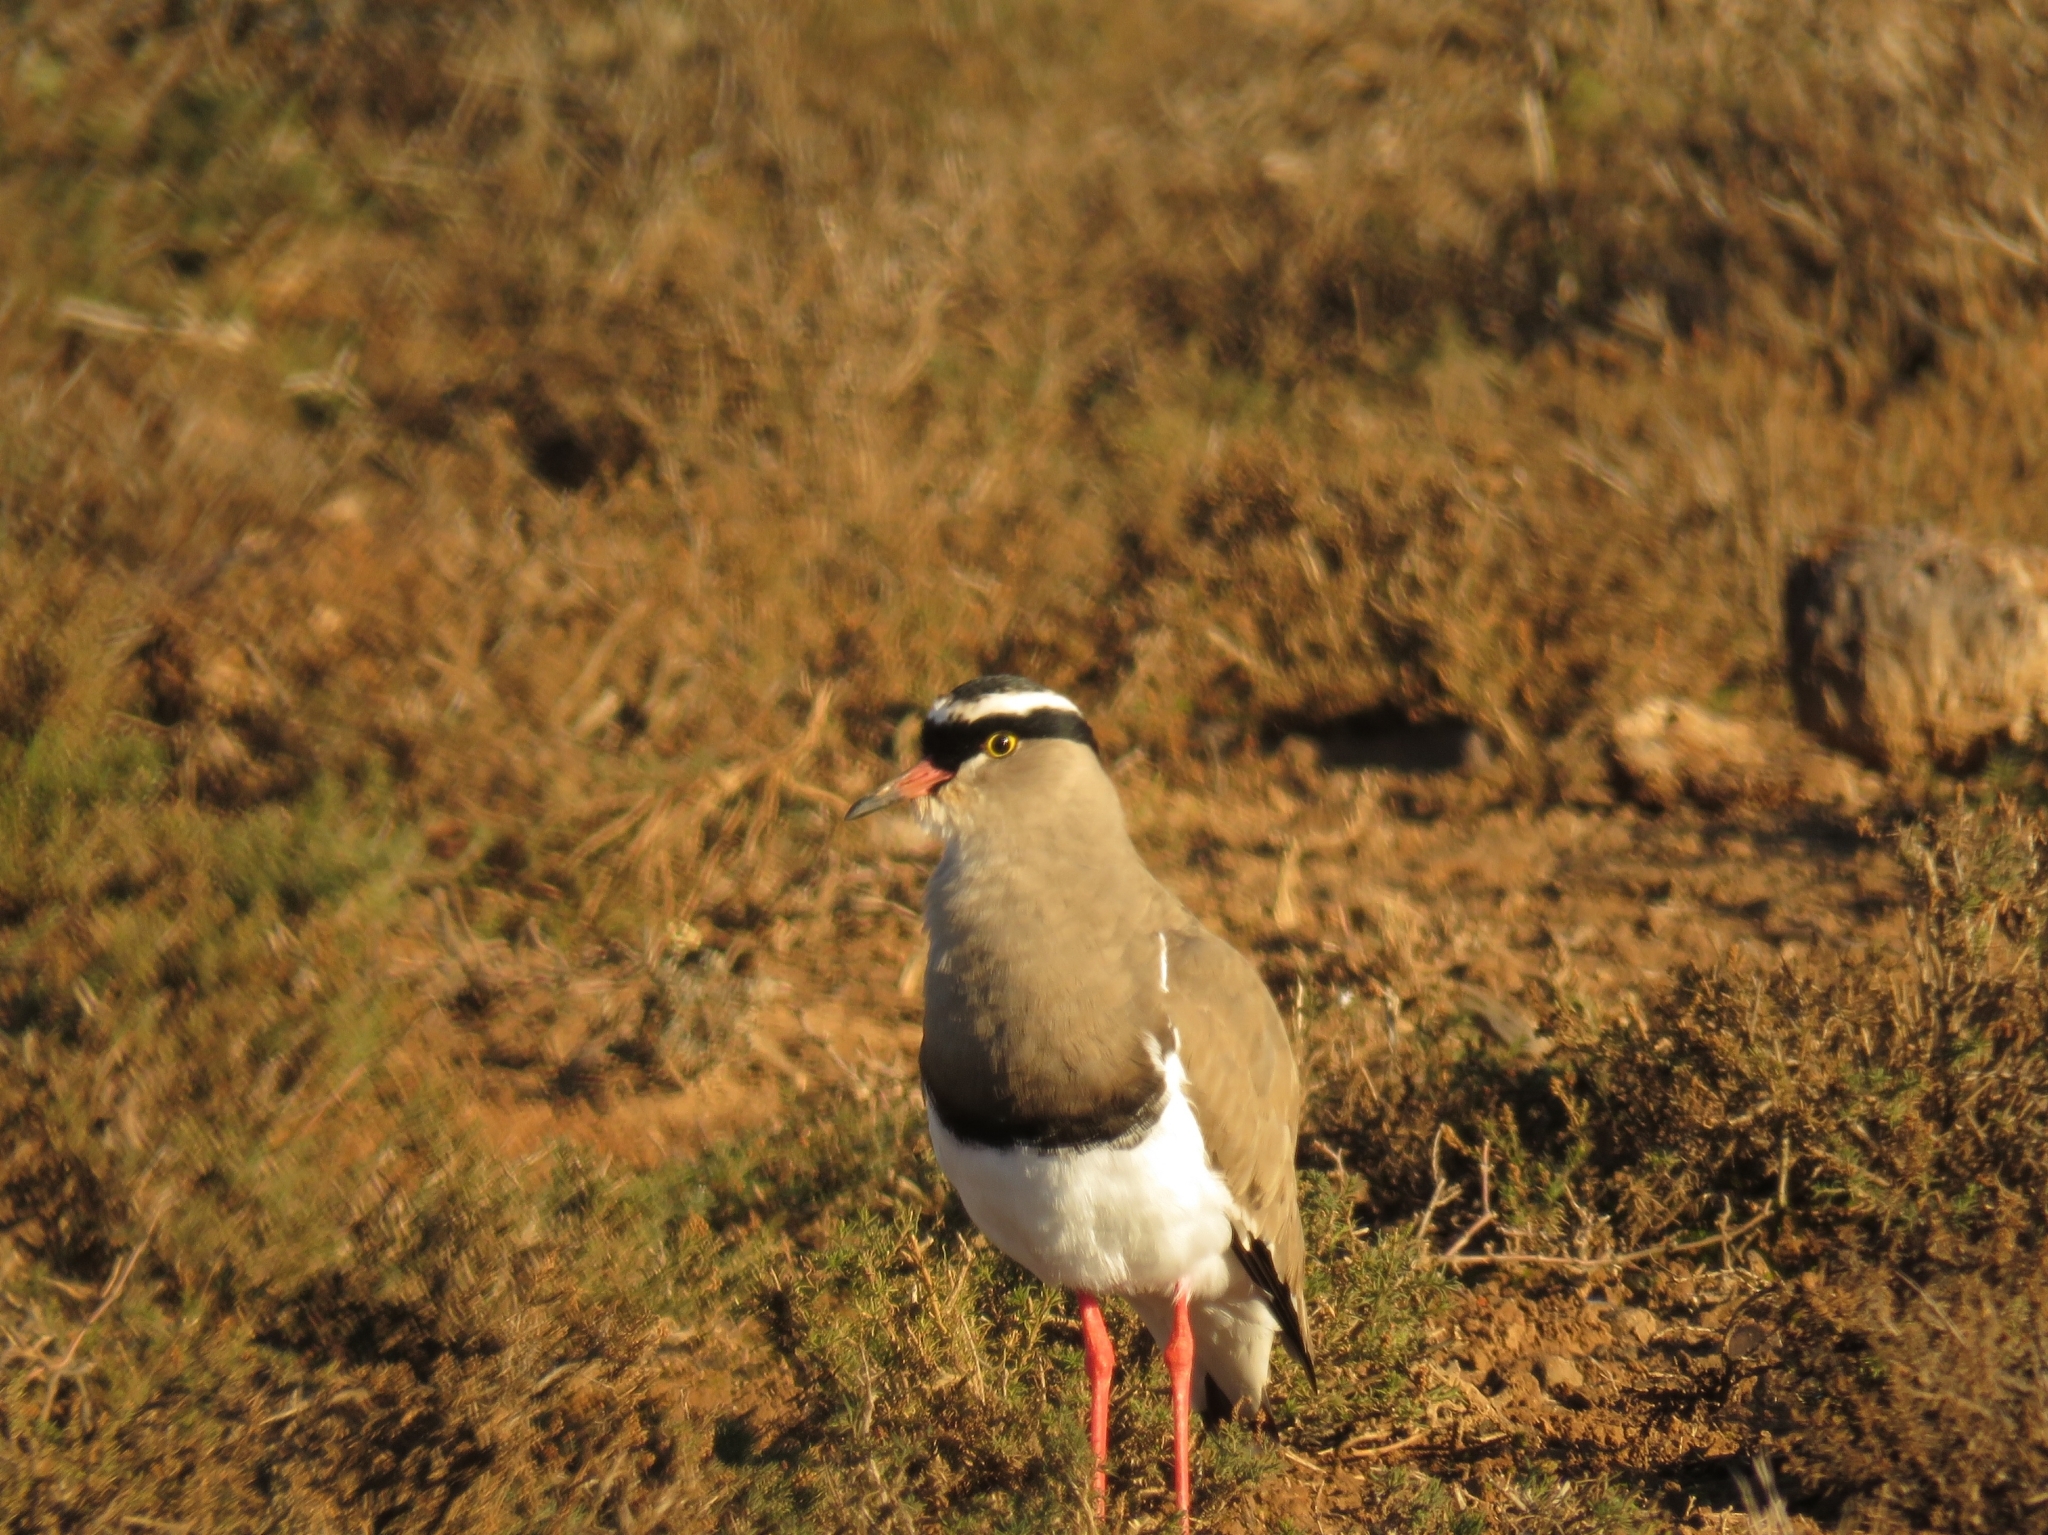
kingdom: Animalia
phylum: Chordata
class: Aves
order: Charadriiformes
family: Charadriidae
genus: Vanellus
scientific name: Vanellus coronatus
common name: Crowned lapwing
